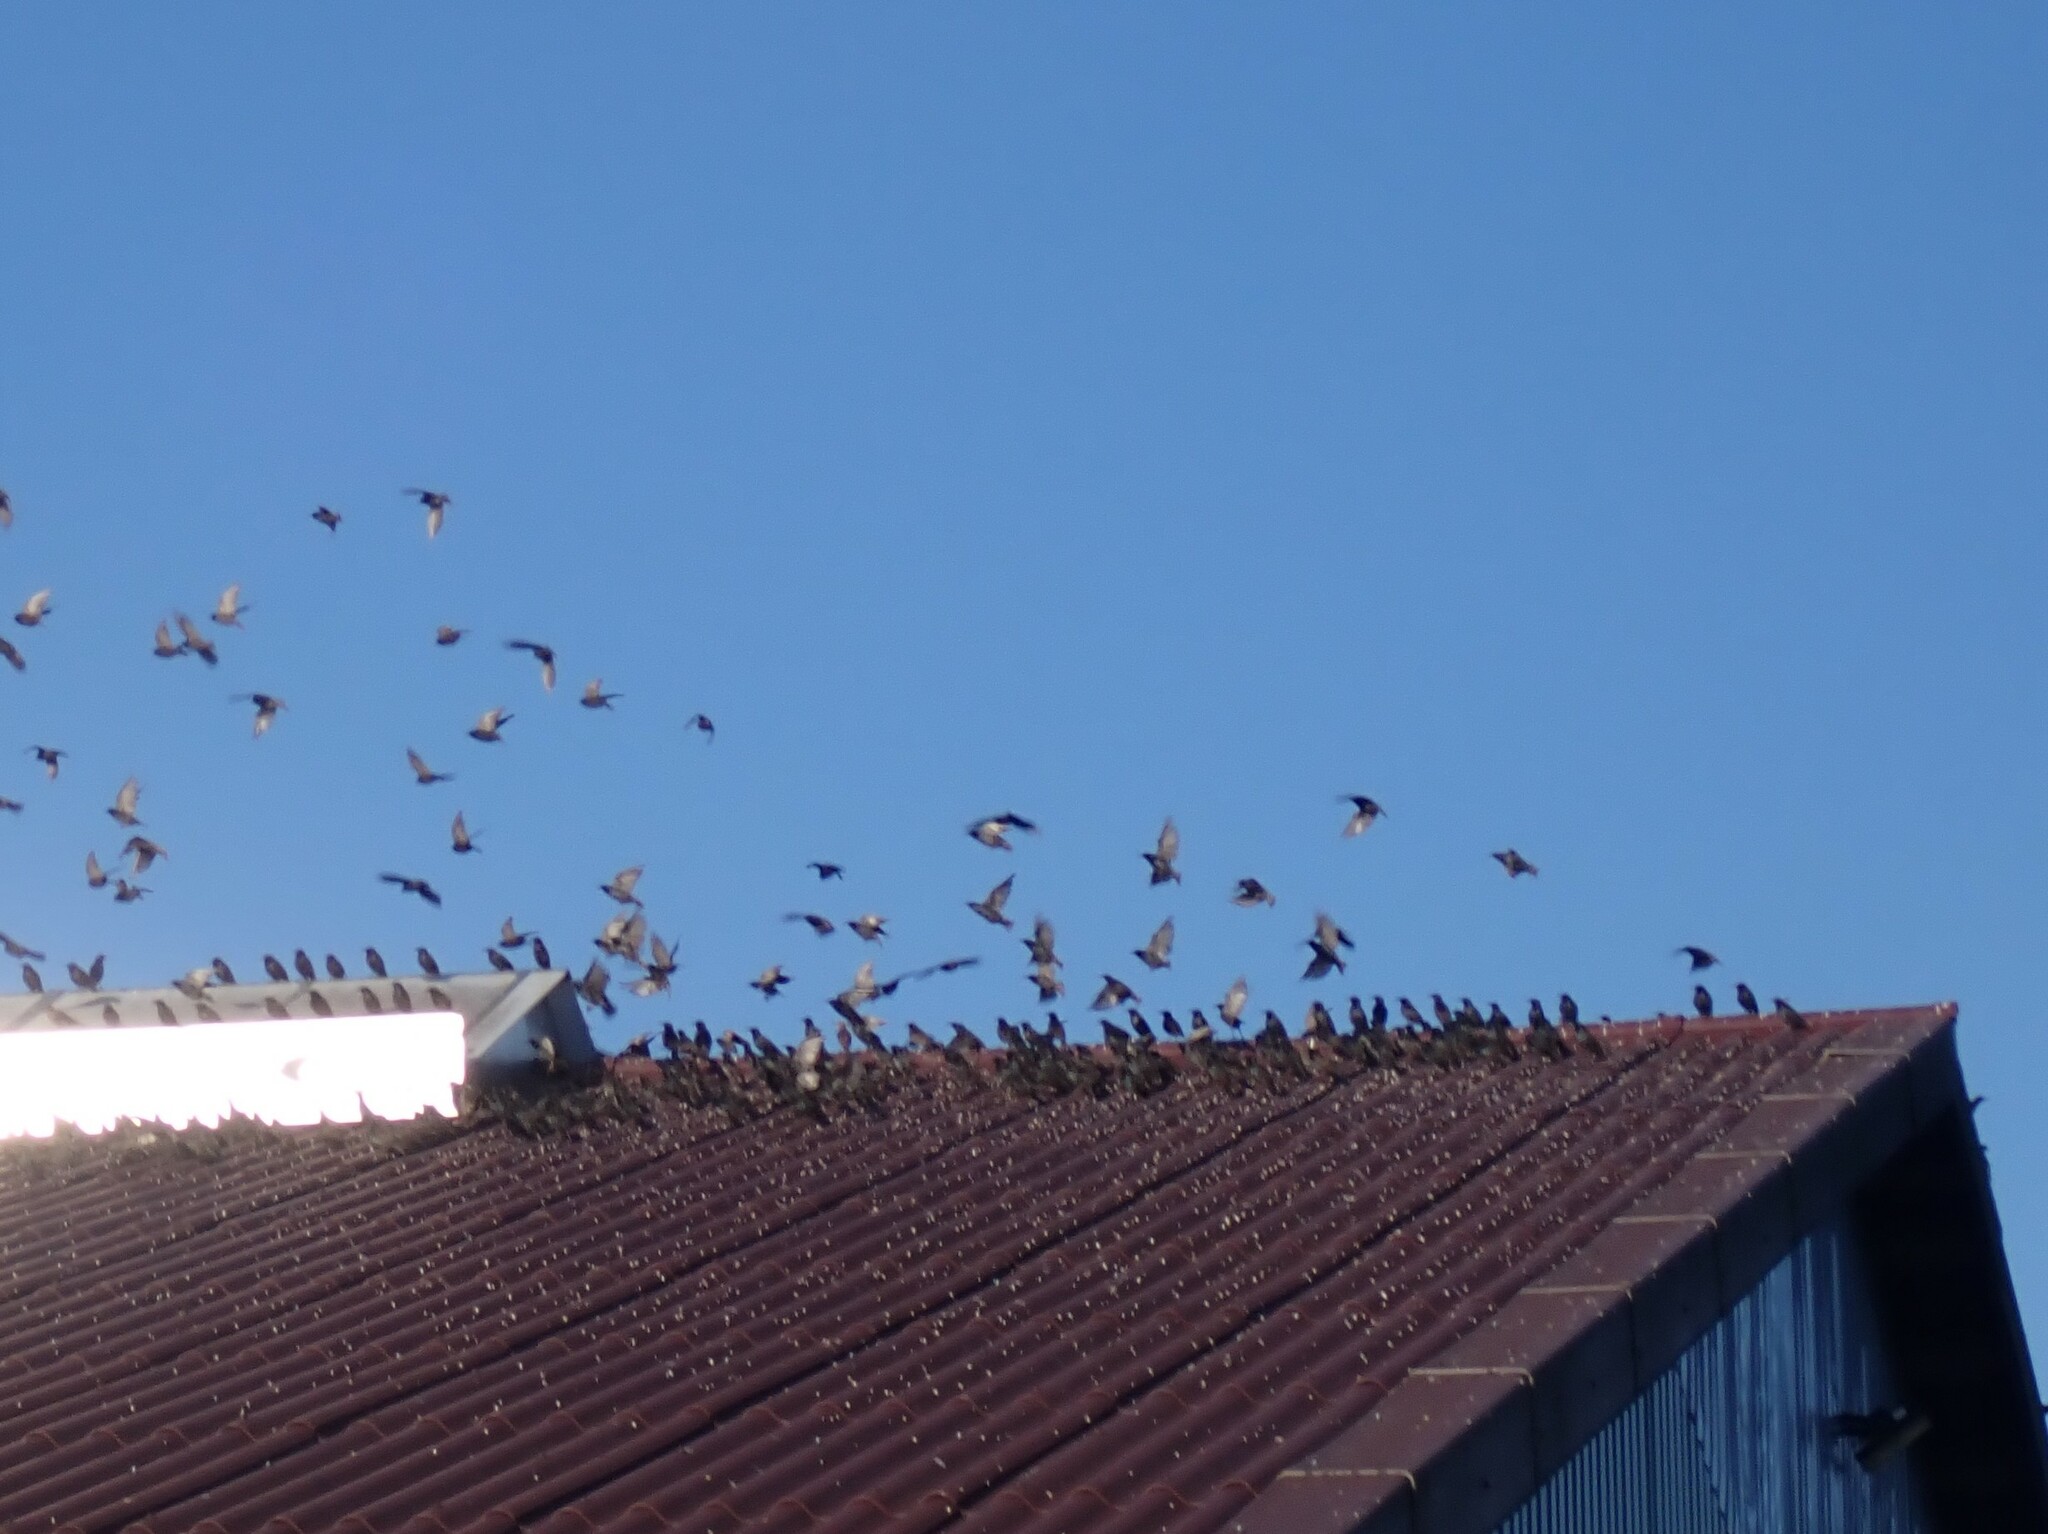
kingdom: Animalia
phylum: Chordata
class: Aves
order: Passeriformes
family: Sturnidae
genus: Sturnus
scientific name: Sturnus vulgaris
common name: Common starling
